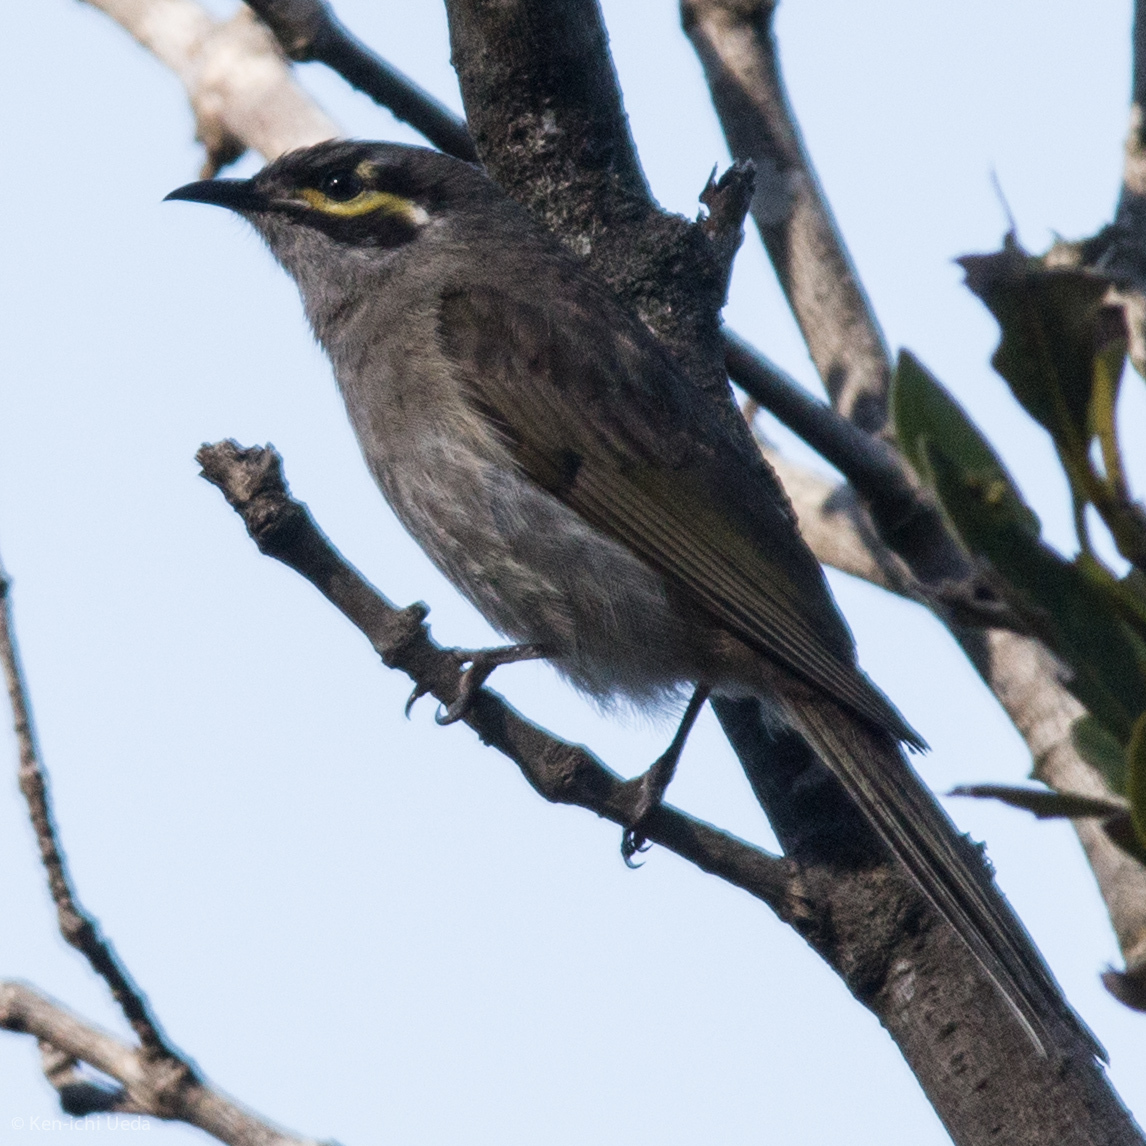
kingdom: Animalia
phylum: Chordata
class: Aves
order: Passeriformes
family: Meliphagidae
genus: Caligavis
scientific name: Caligavis chrysops
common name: Yellow-faced honeyeater
